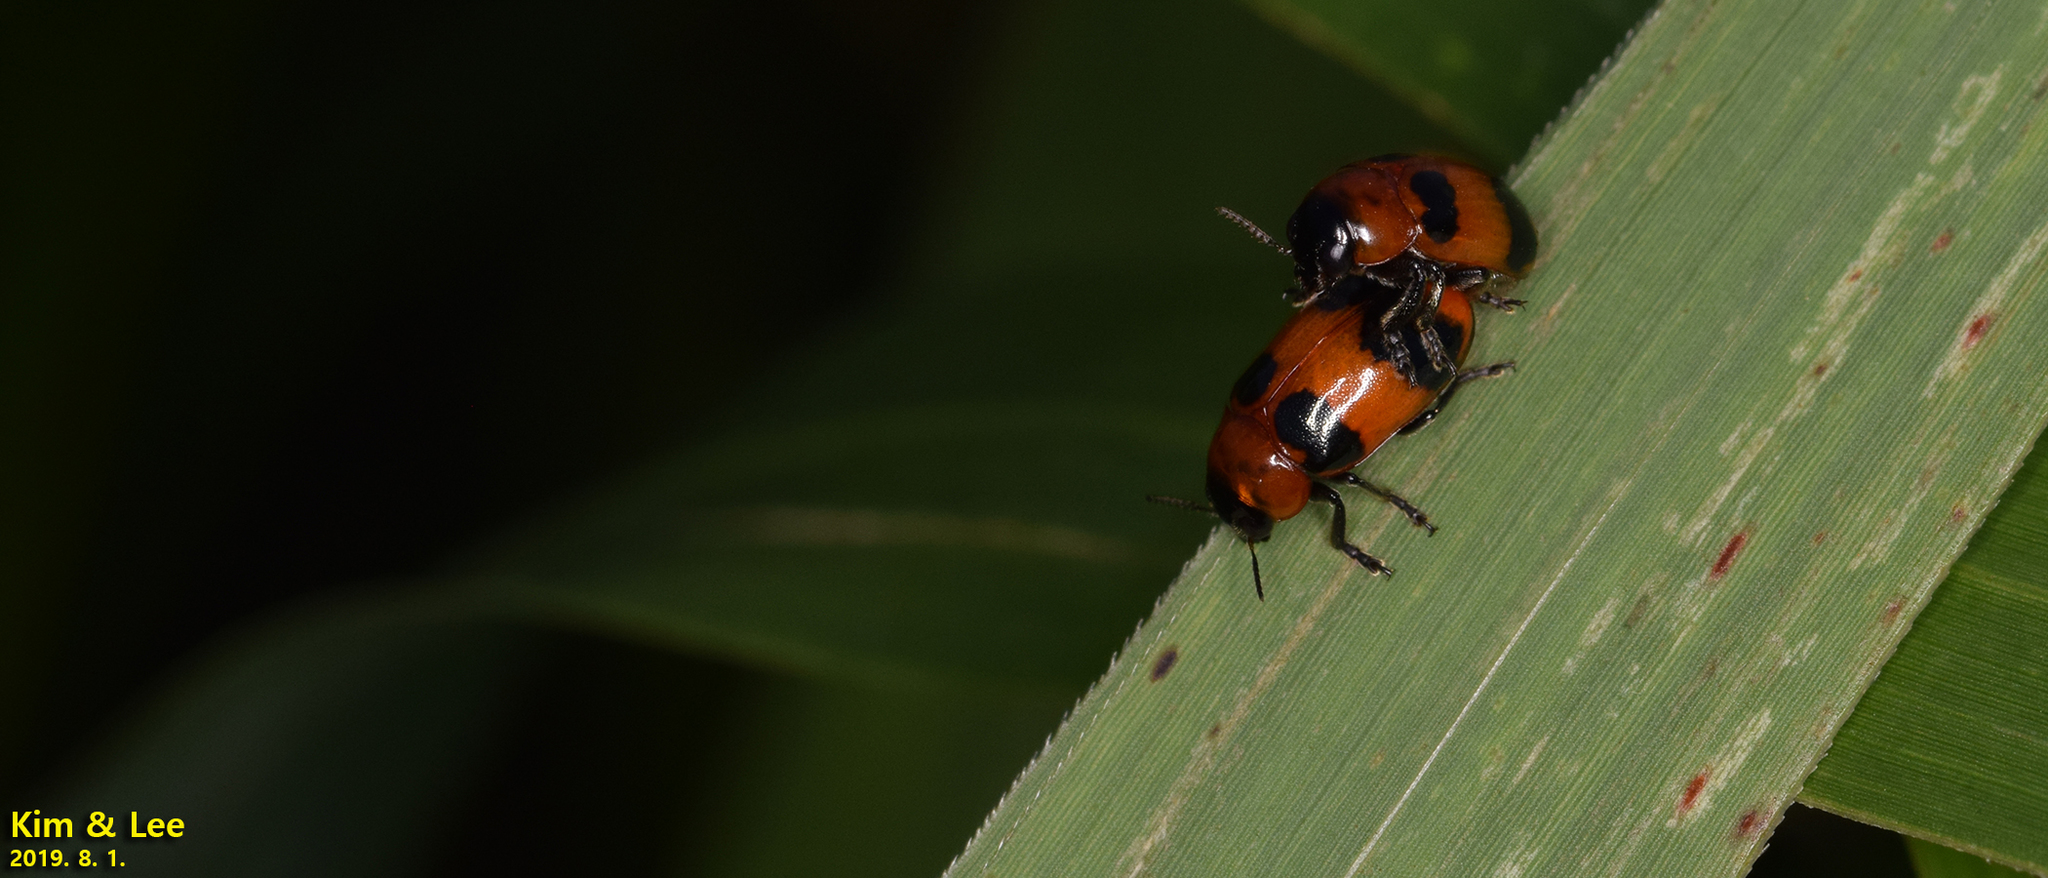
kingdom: Animalia
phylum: Arthropoda
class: Insecta
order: Coleoptera
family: Chrysomelidae
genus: Physosmaragdina
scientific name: Physosmaragdina nigrifrons
